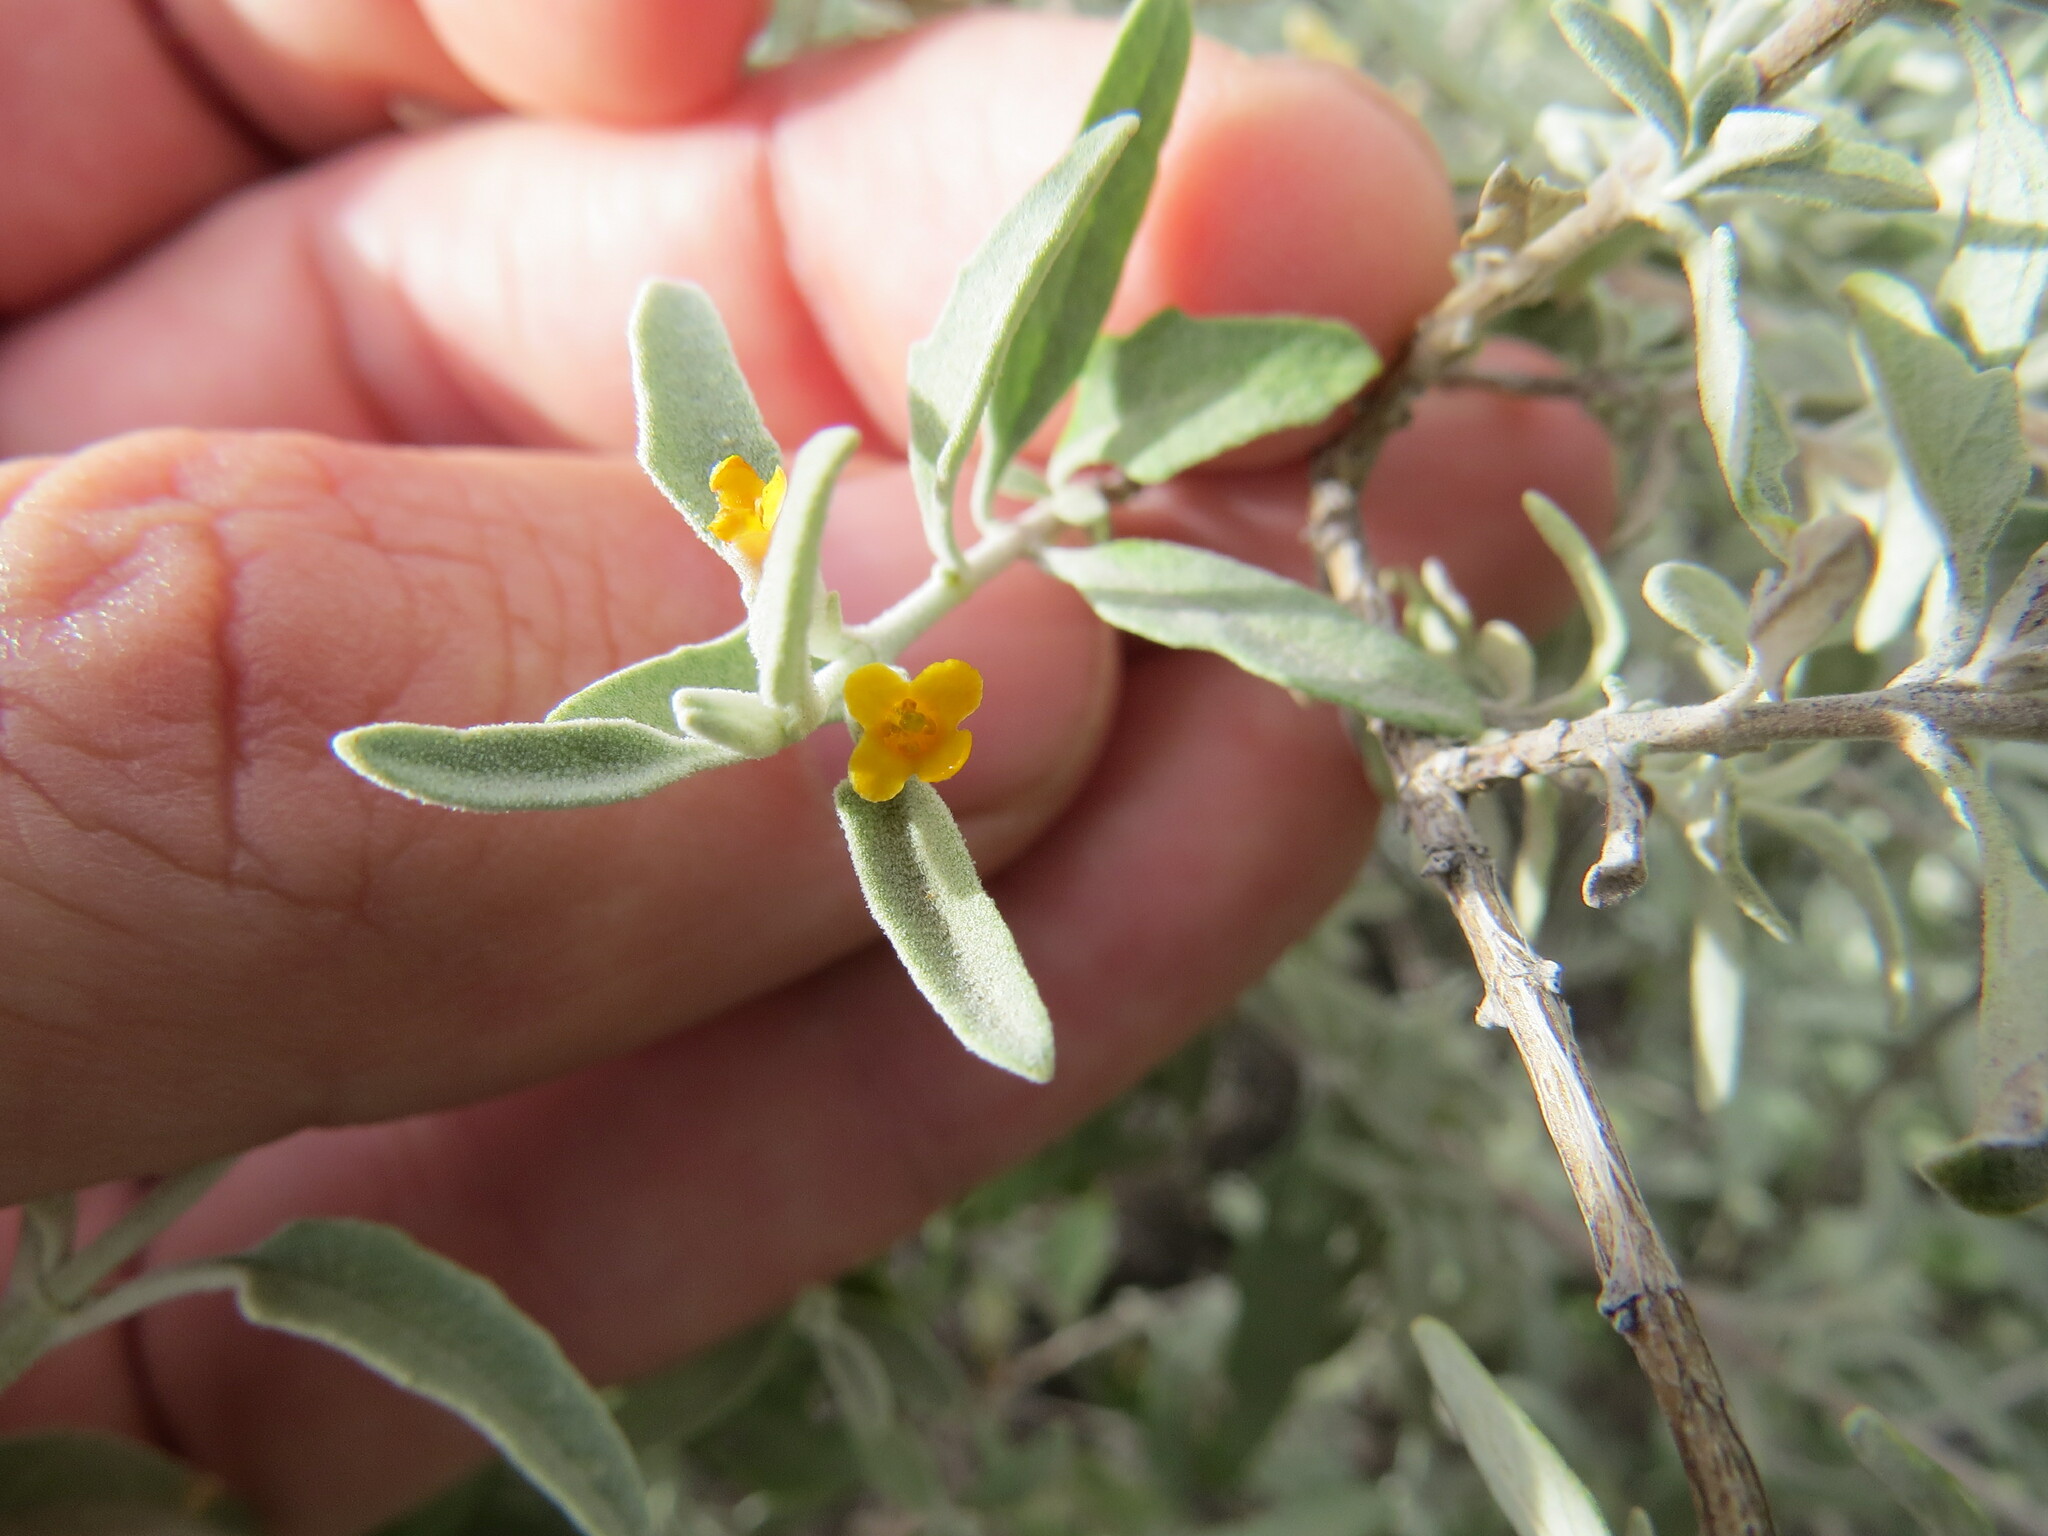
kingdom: Plantae
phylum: Tracheophyta
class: Magnoliopsida
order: Lamiales
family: Scrophulariaceae
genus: Buddleja
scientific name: Buddleja mendozensis
